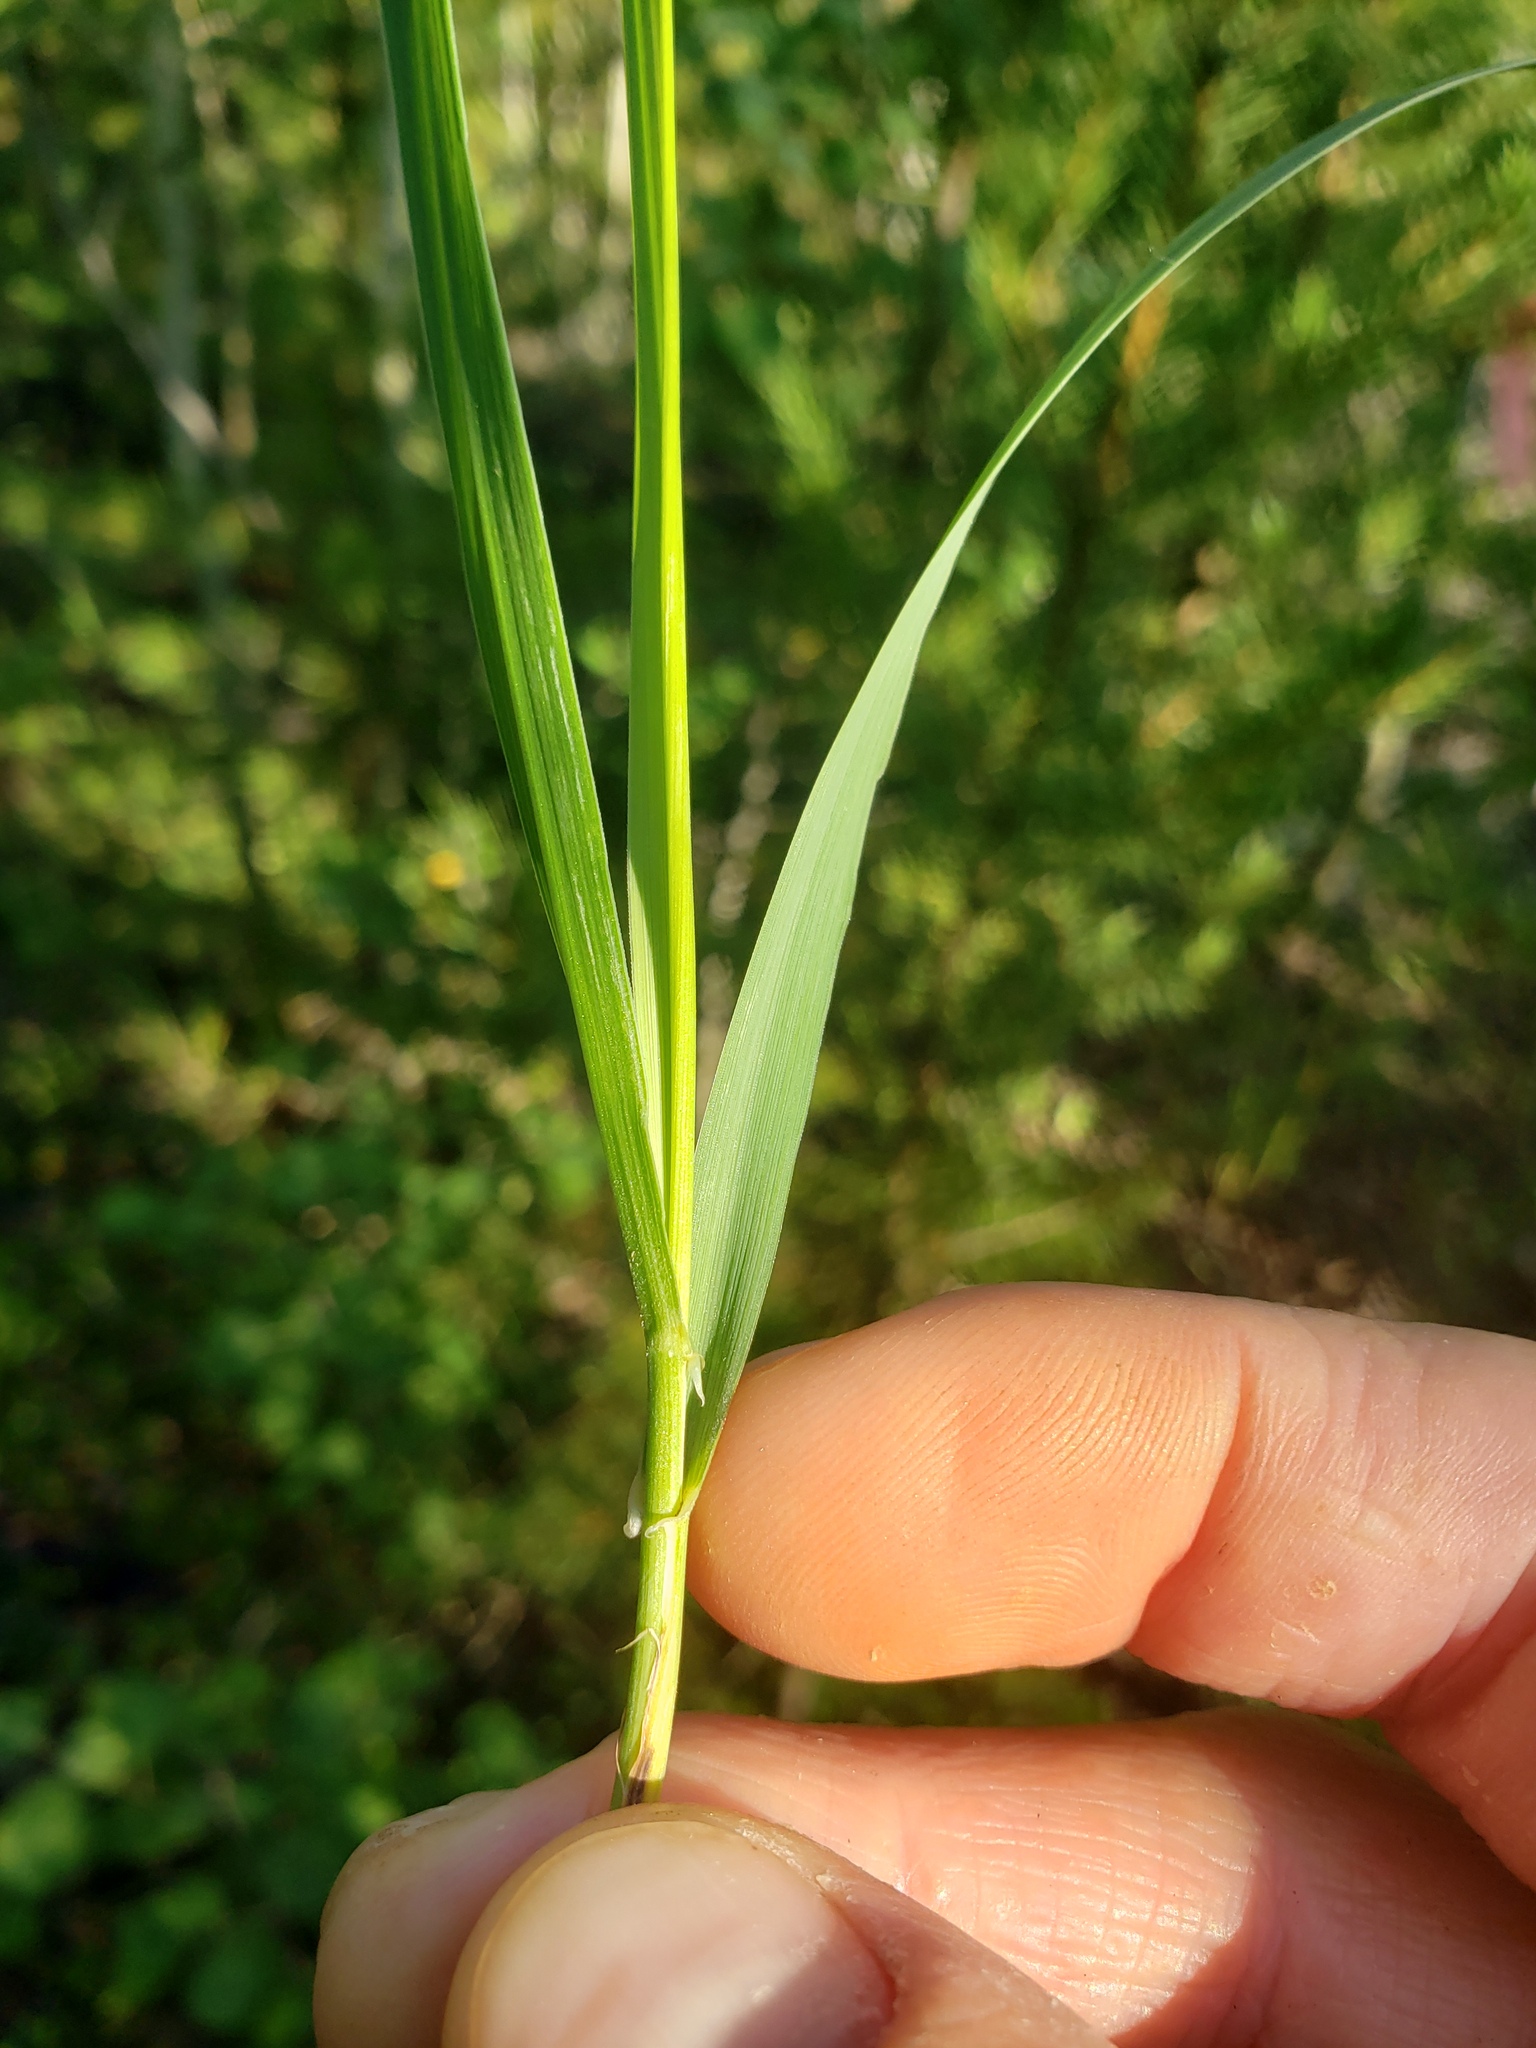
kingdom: Plantae
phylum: Tracheophyta
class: Liliopsida
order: Poales
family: Poaceae
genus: Leymus
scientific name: Leymus innovatus
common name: Boreal wild rye
